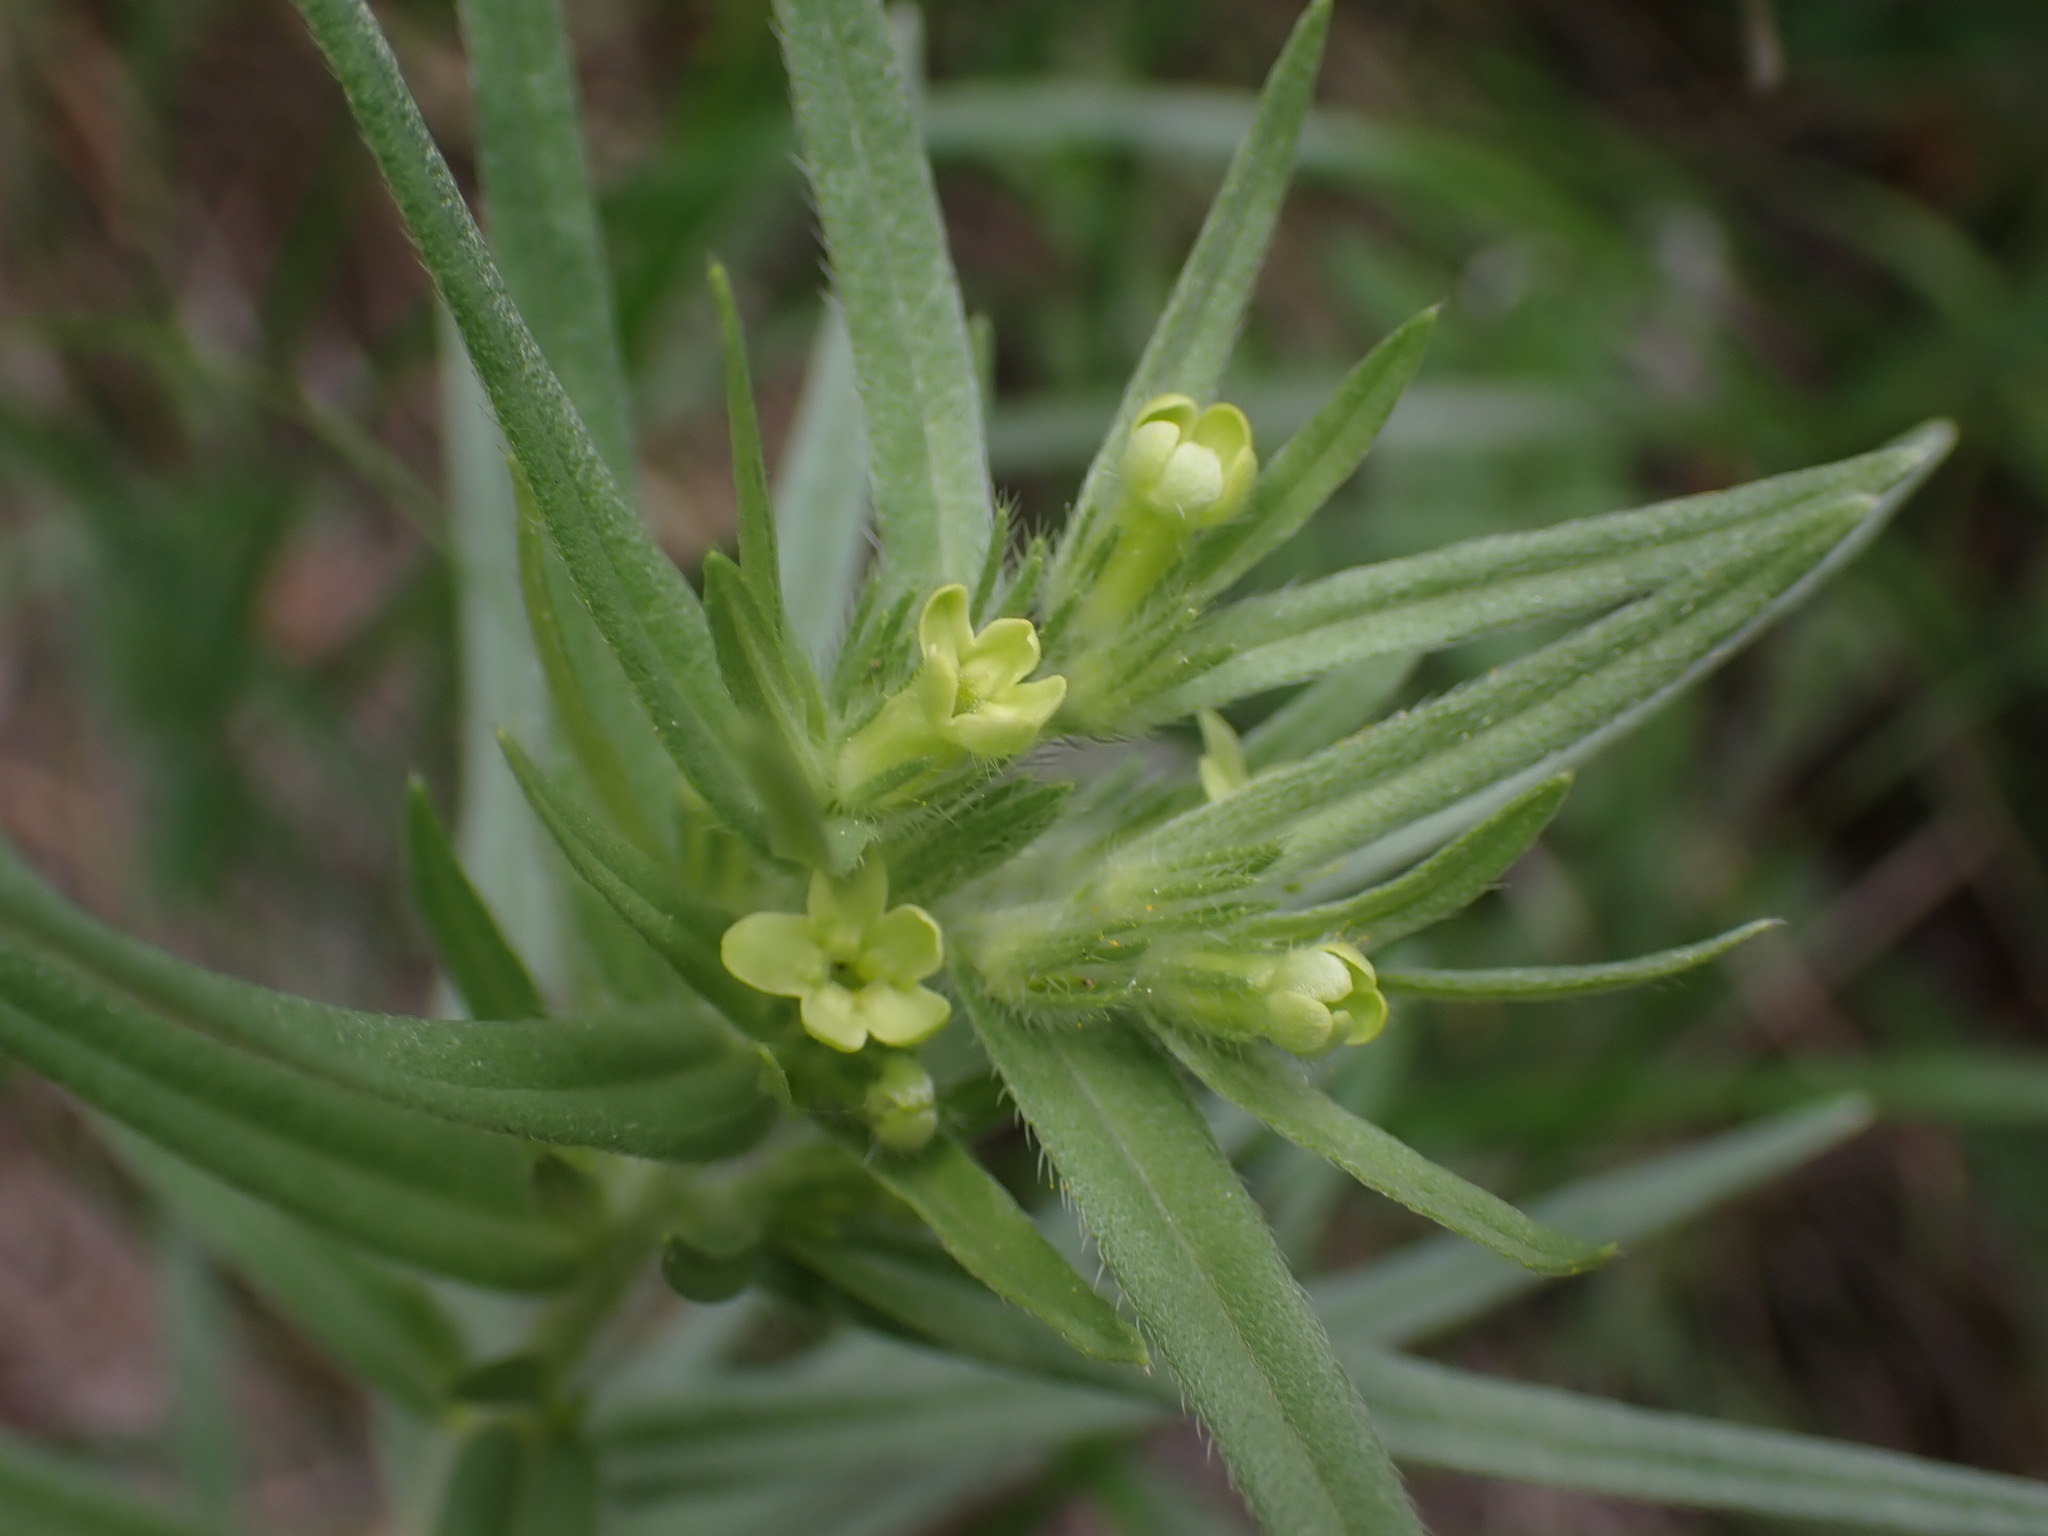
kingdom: Plantae
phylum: Tracheophyta
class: Magnoliopsida
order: Boraginales
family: Boraginaceae
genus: Lithospermum
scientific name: Lithospermum ruderale
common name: Western gromwell
